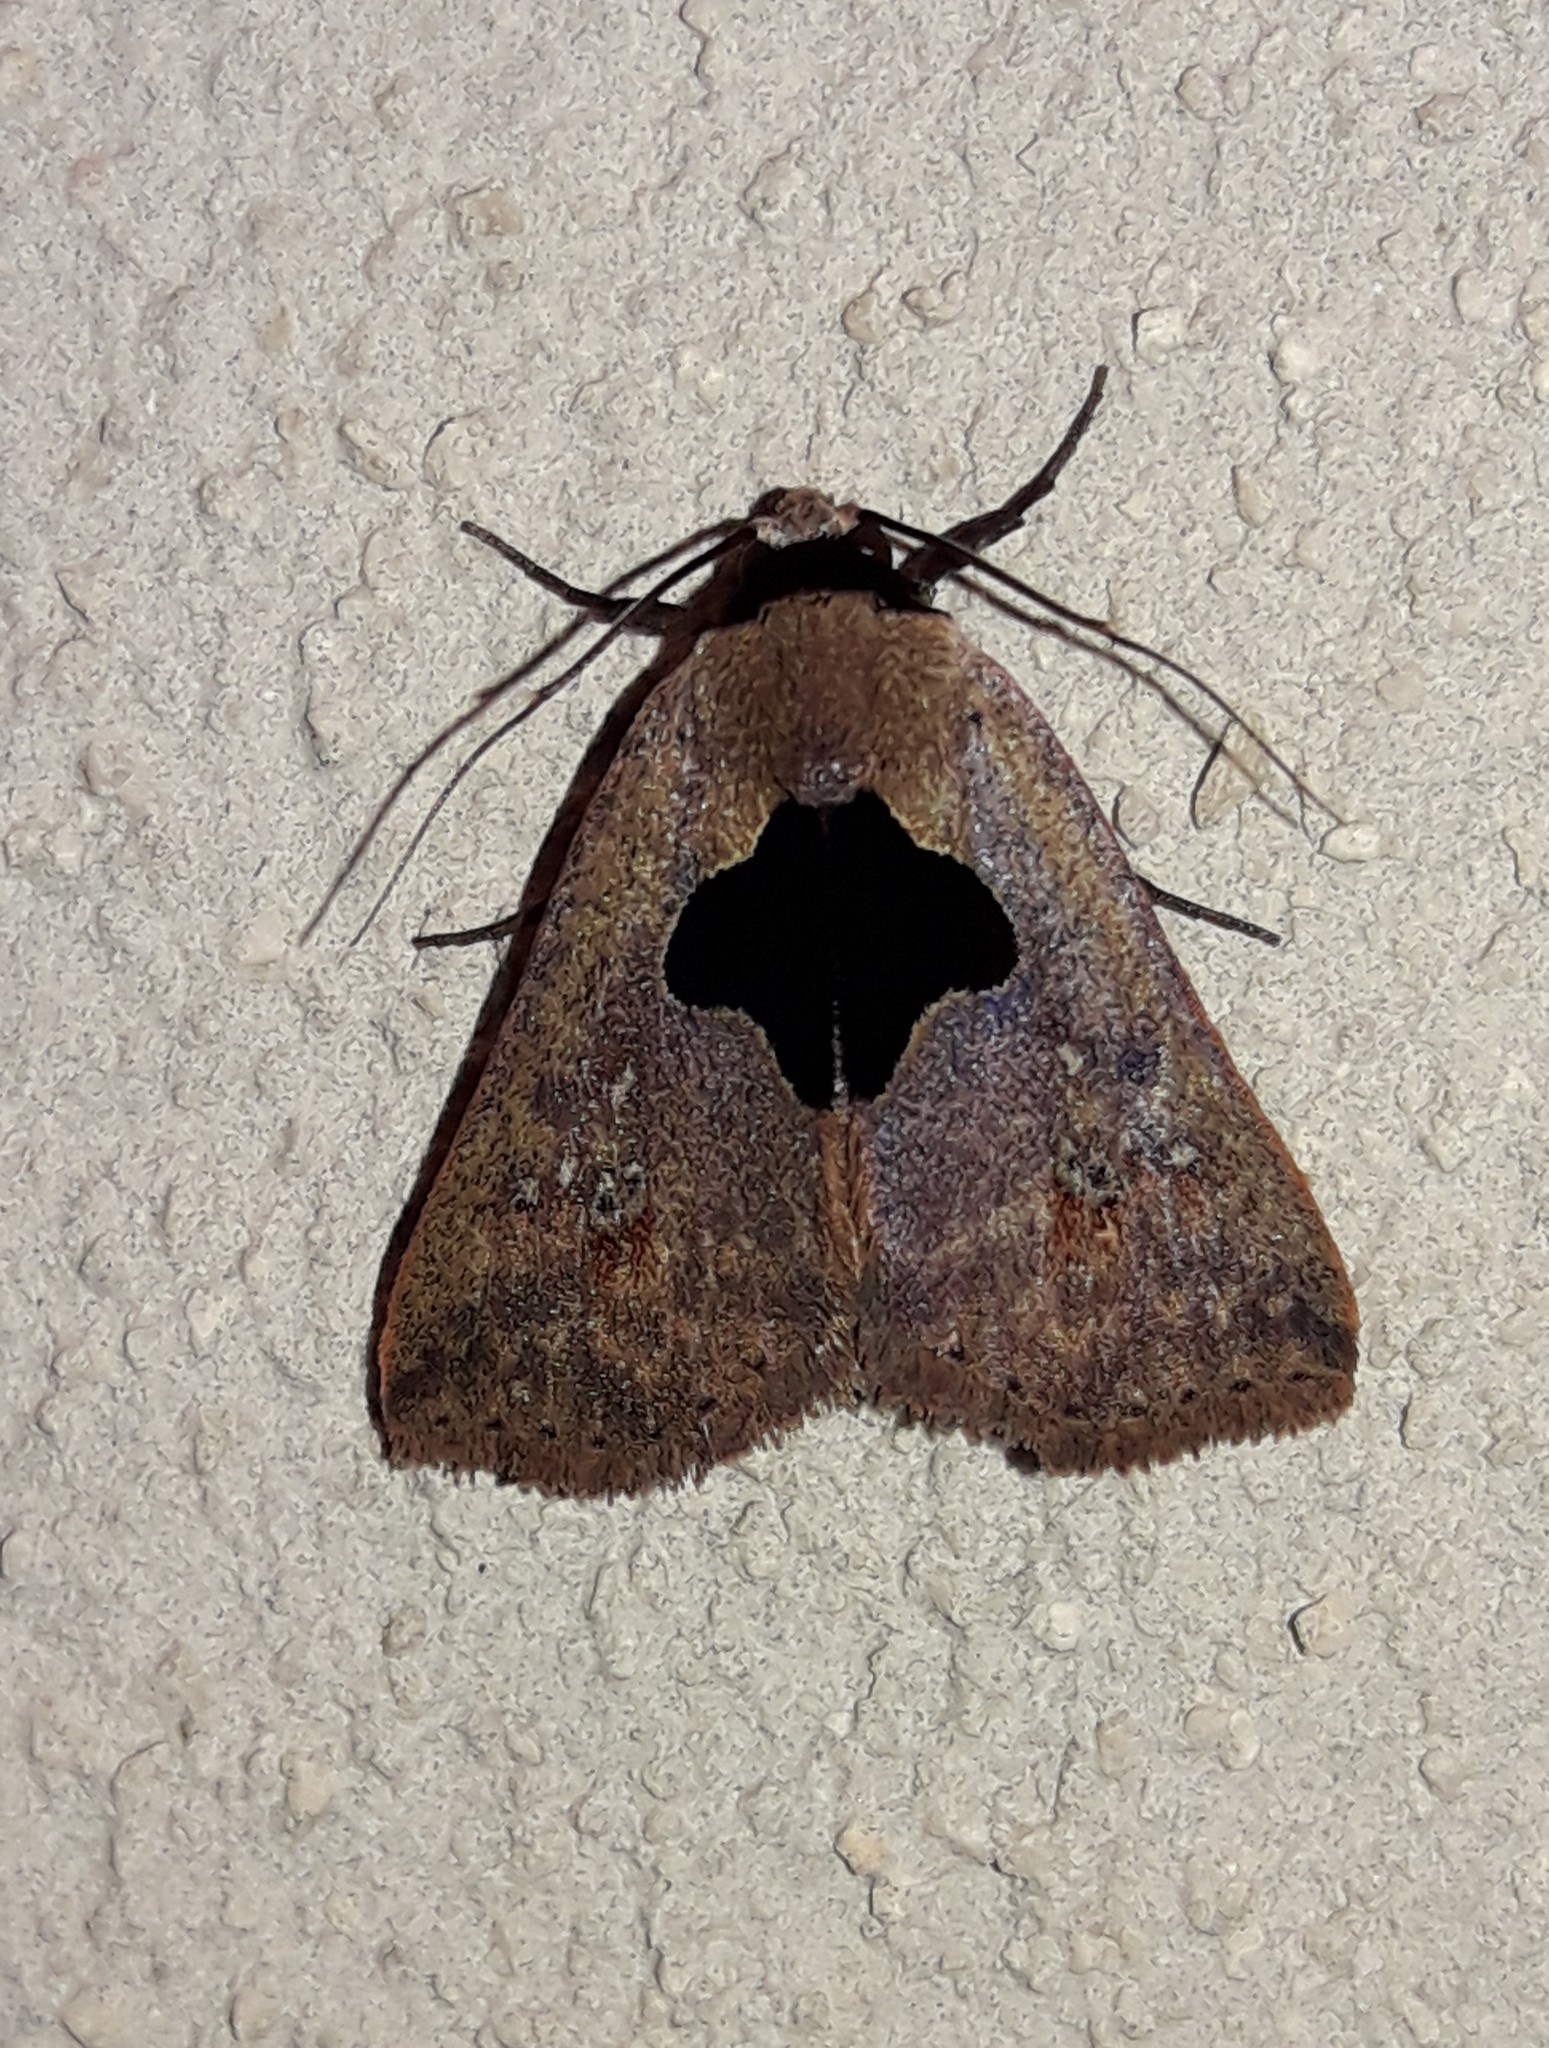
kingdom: Animalia
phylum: Arthropoda
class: Insecta
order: Lepidoptera
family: Erebidae
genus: Baniana
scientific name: Baniana veluta
